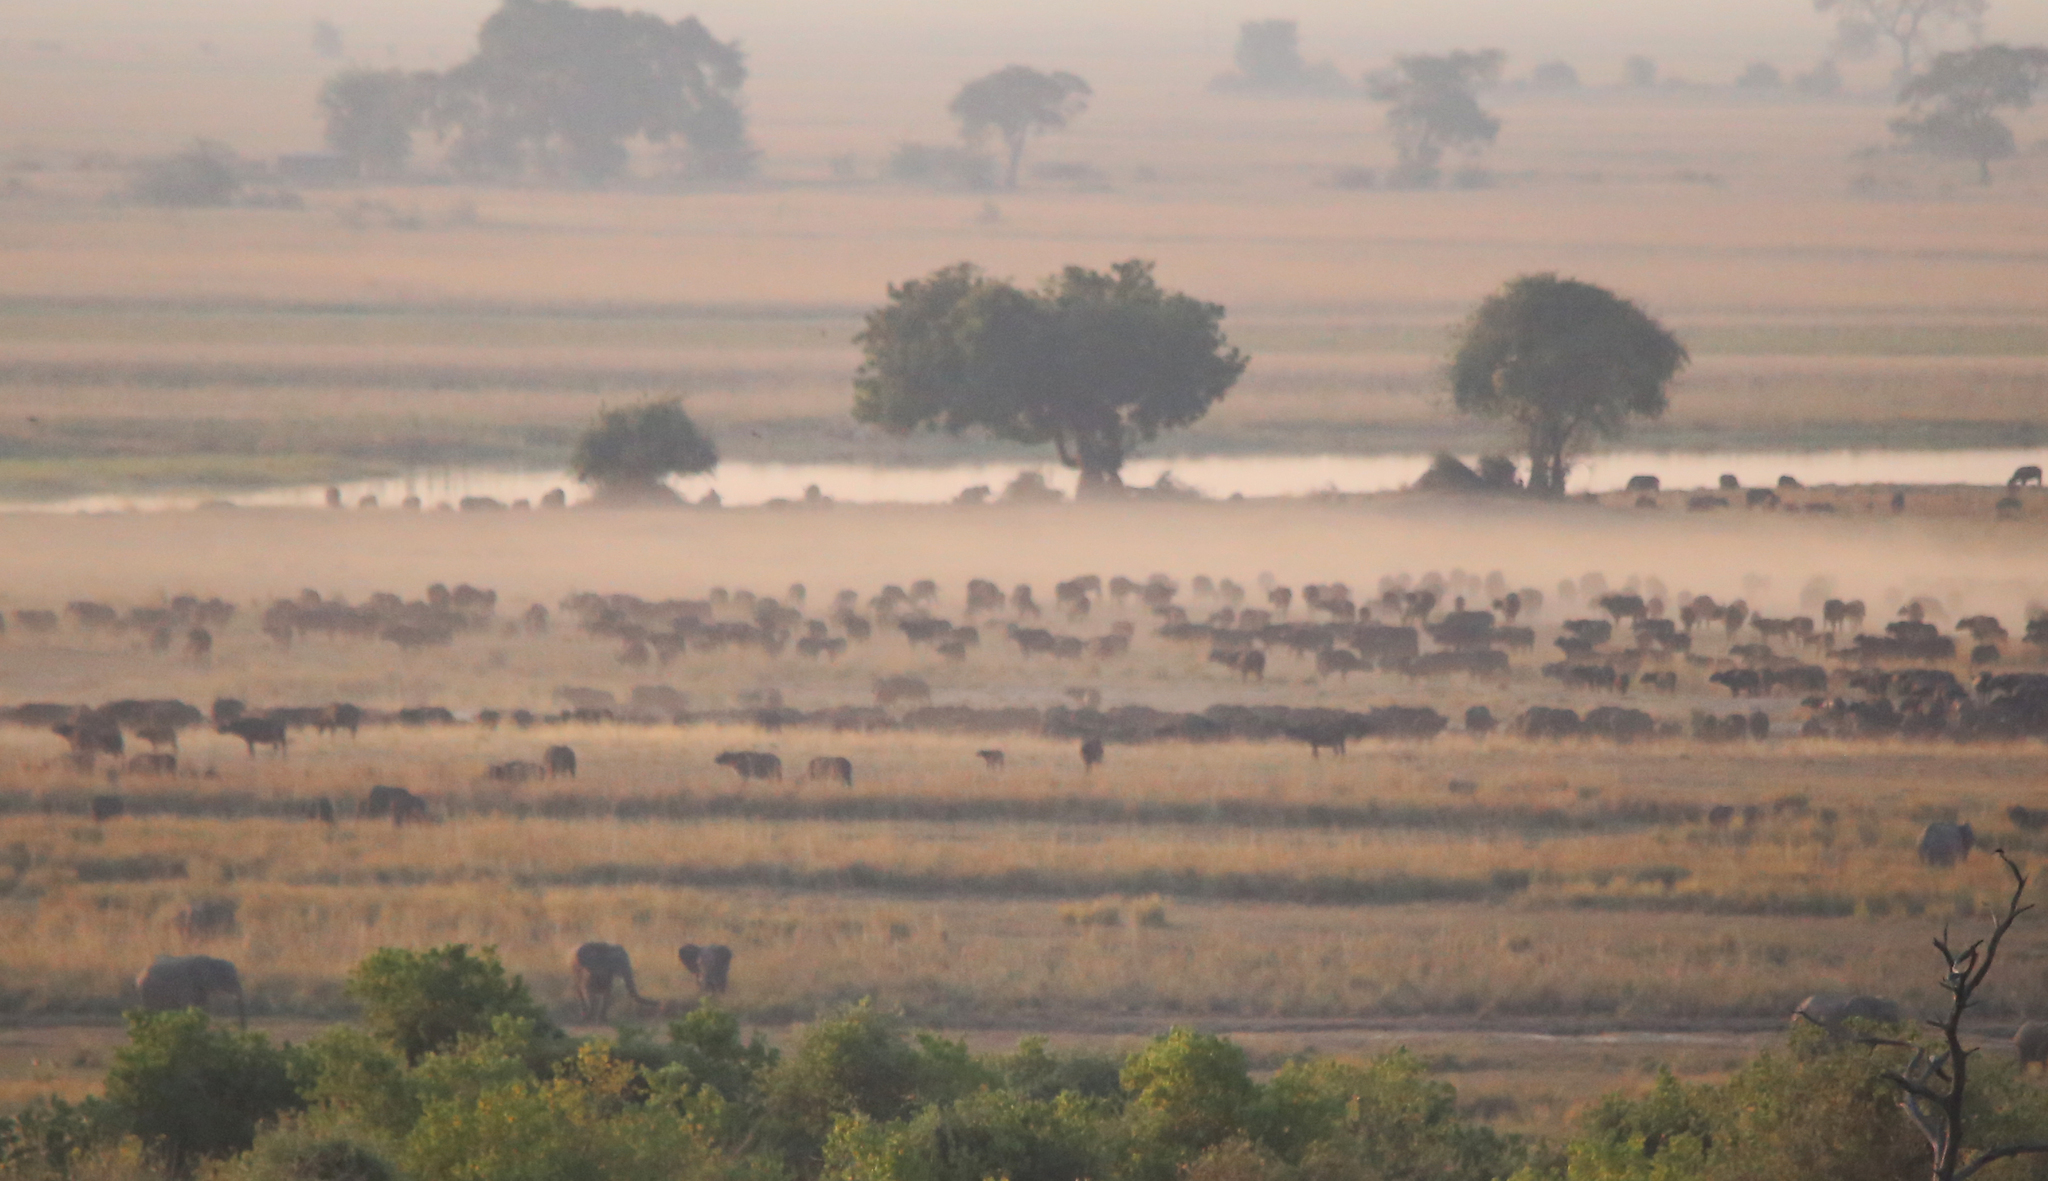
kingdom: Animalia
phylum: Chordata
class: Mammalia
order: Artiodactyla
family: Bovidae
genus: Syncerus
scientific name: Syncerus caffer
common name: African buffalo
